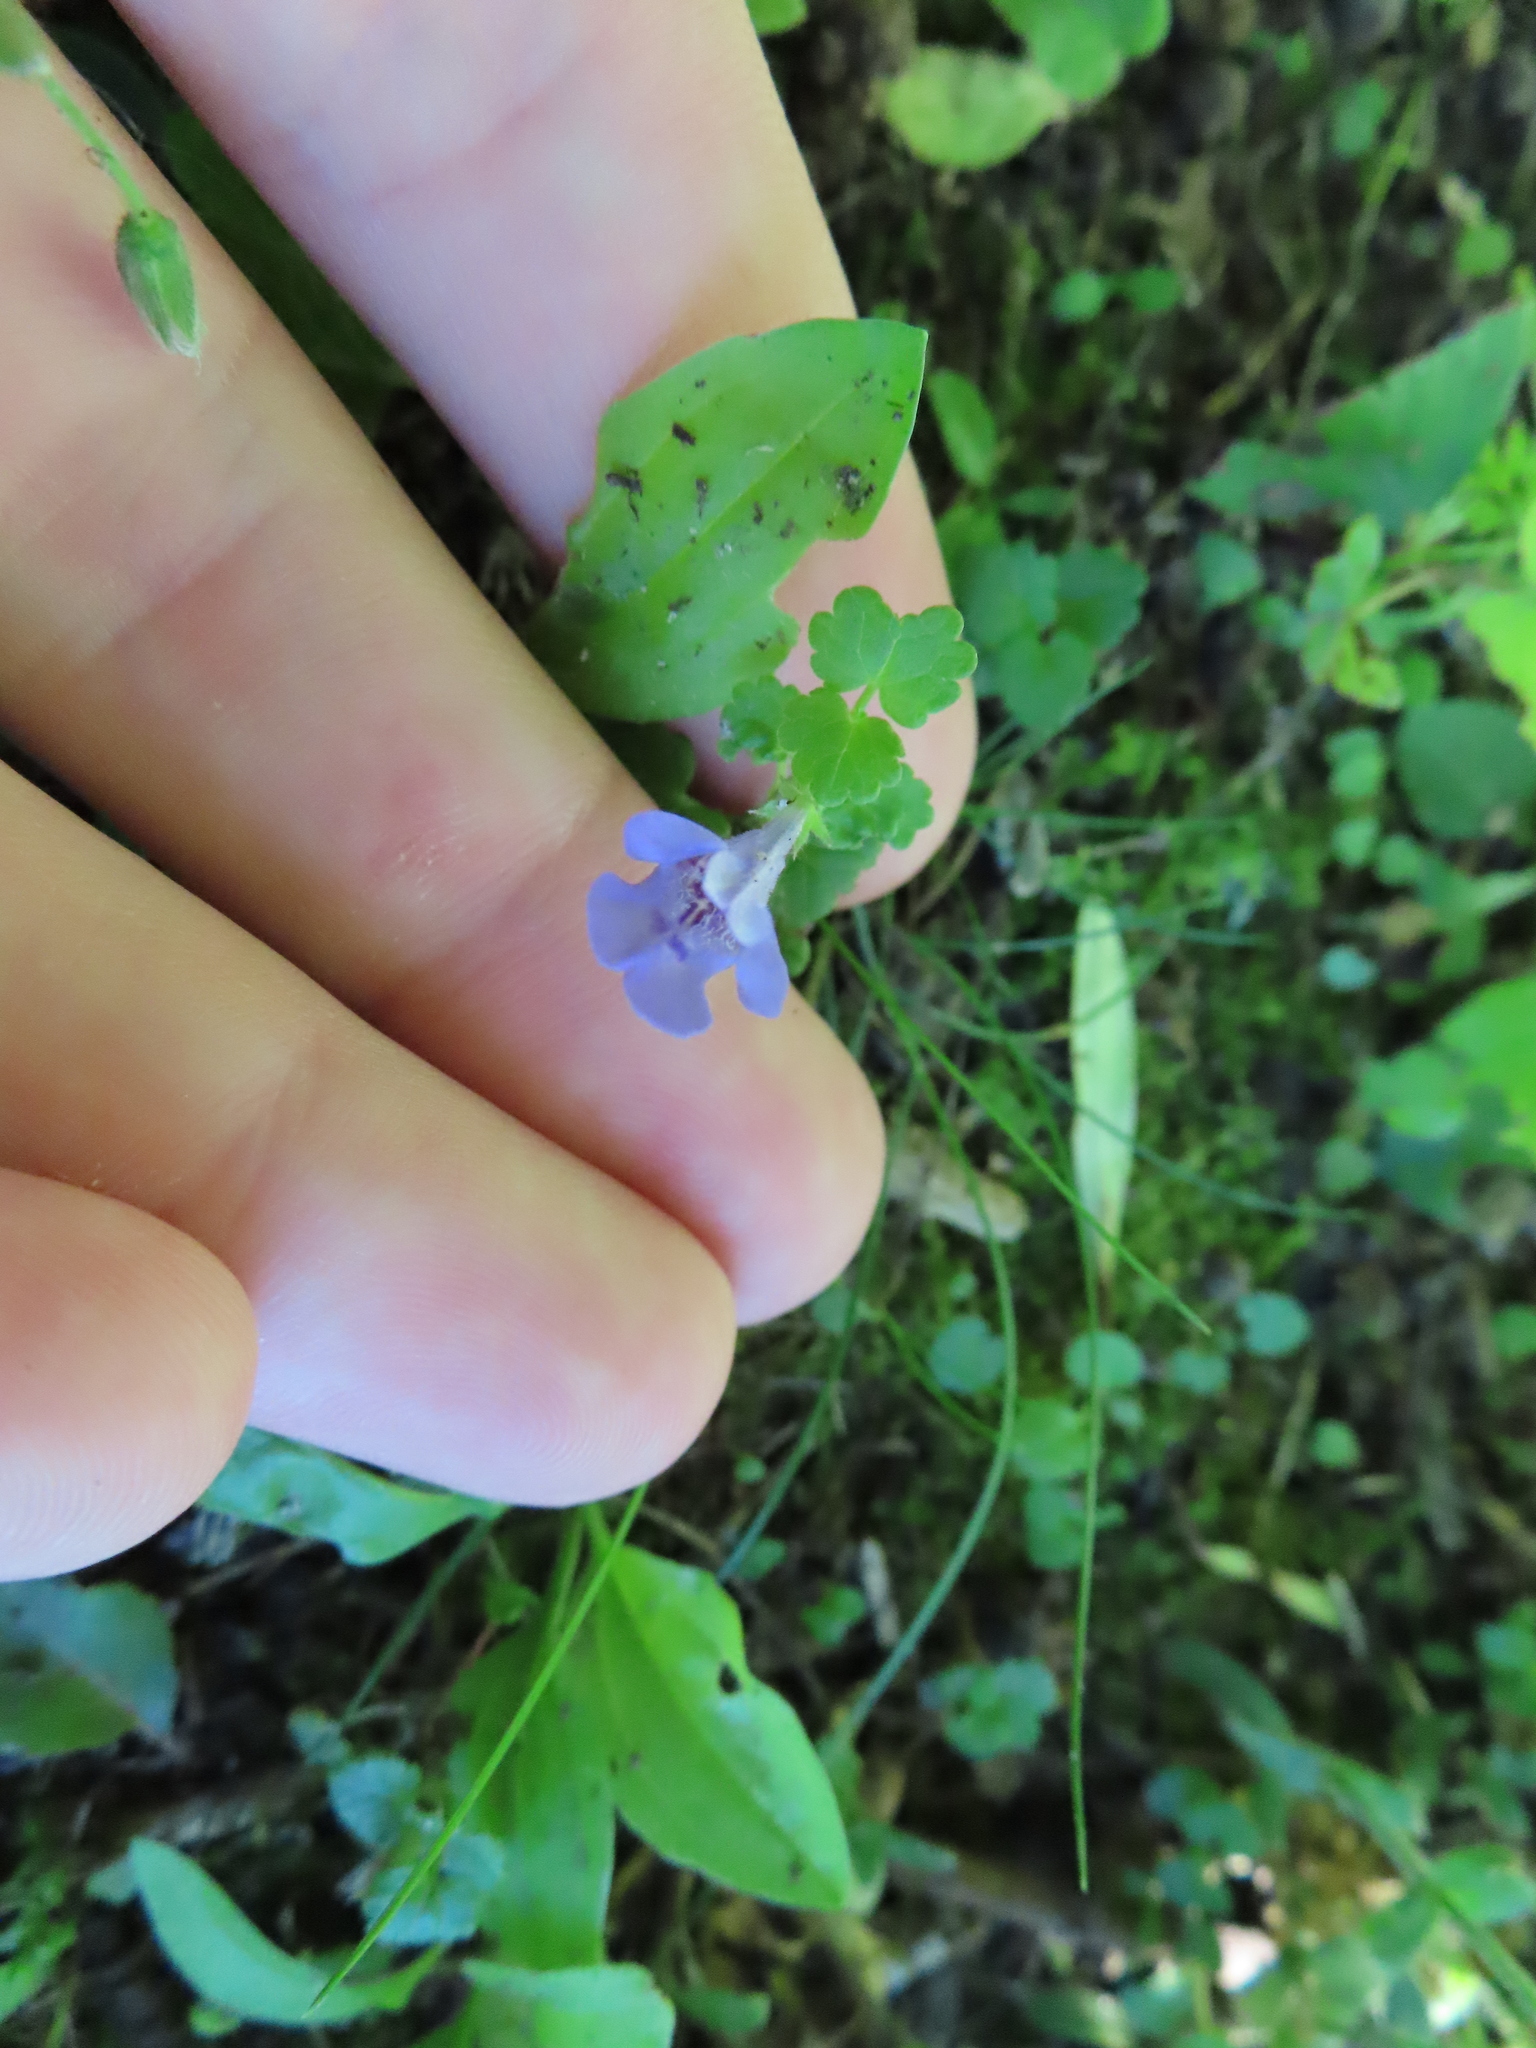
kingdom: Plantae
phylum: Tracheophyta
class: Magnoliopsida
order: Lamiales
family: Lamiaceae
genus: Glechoma
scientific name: Glechoma hederacea
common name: Ground ivy
